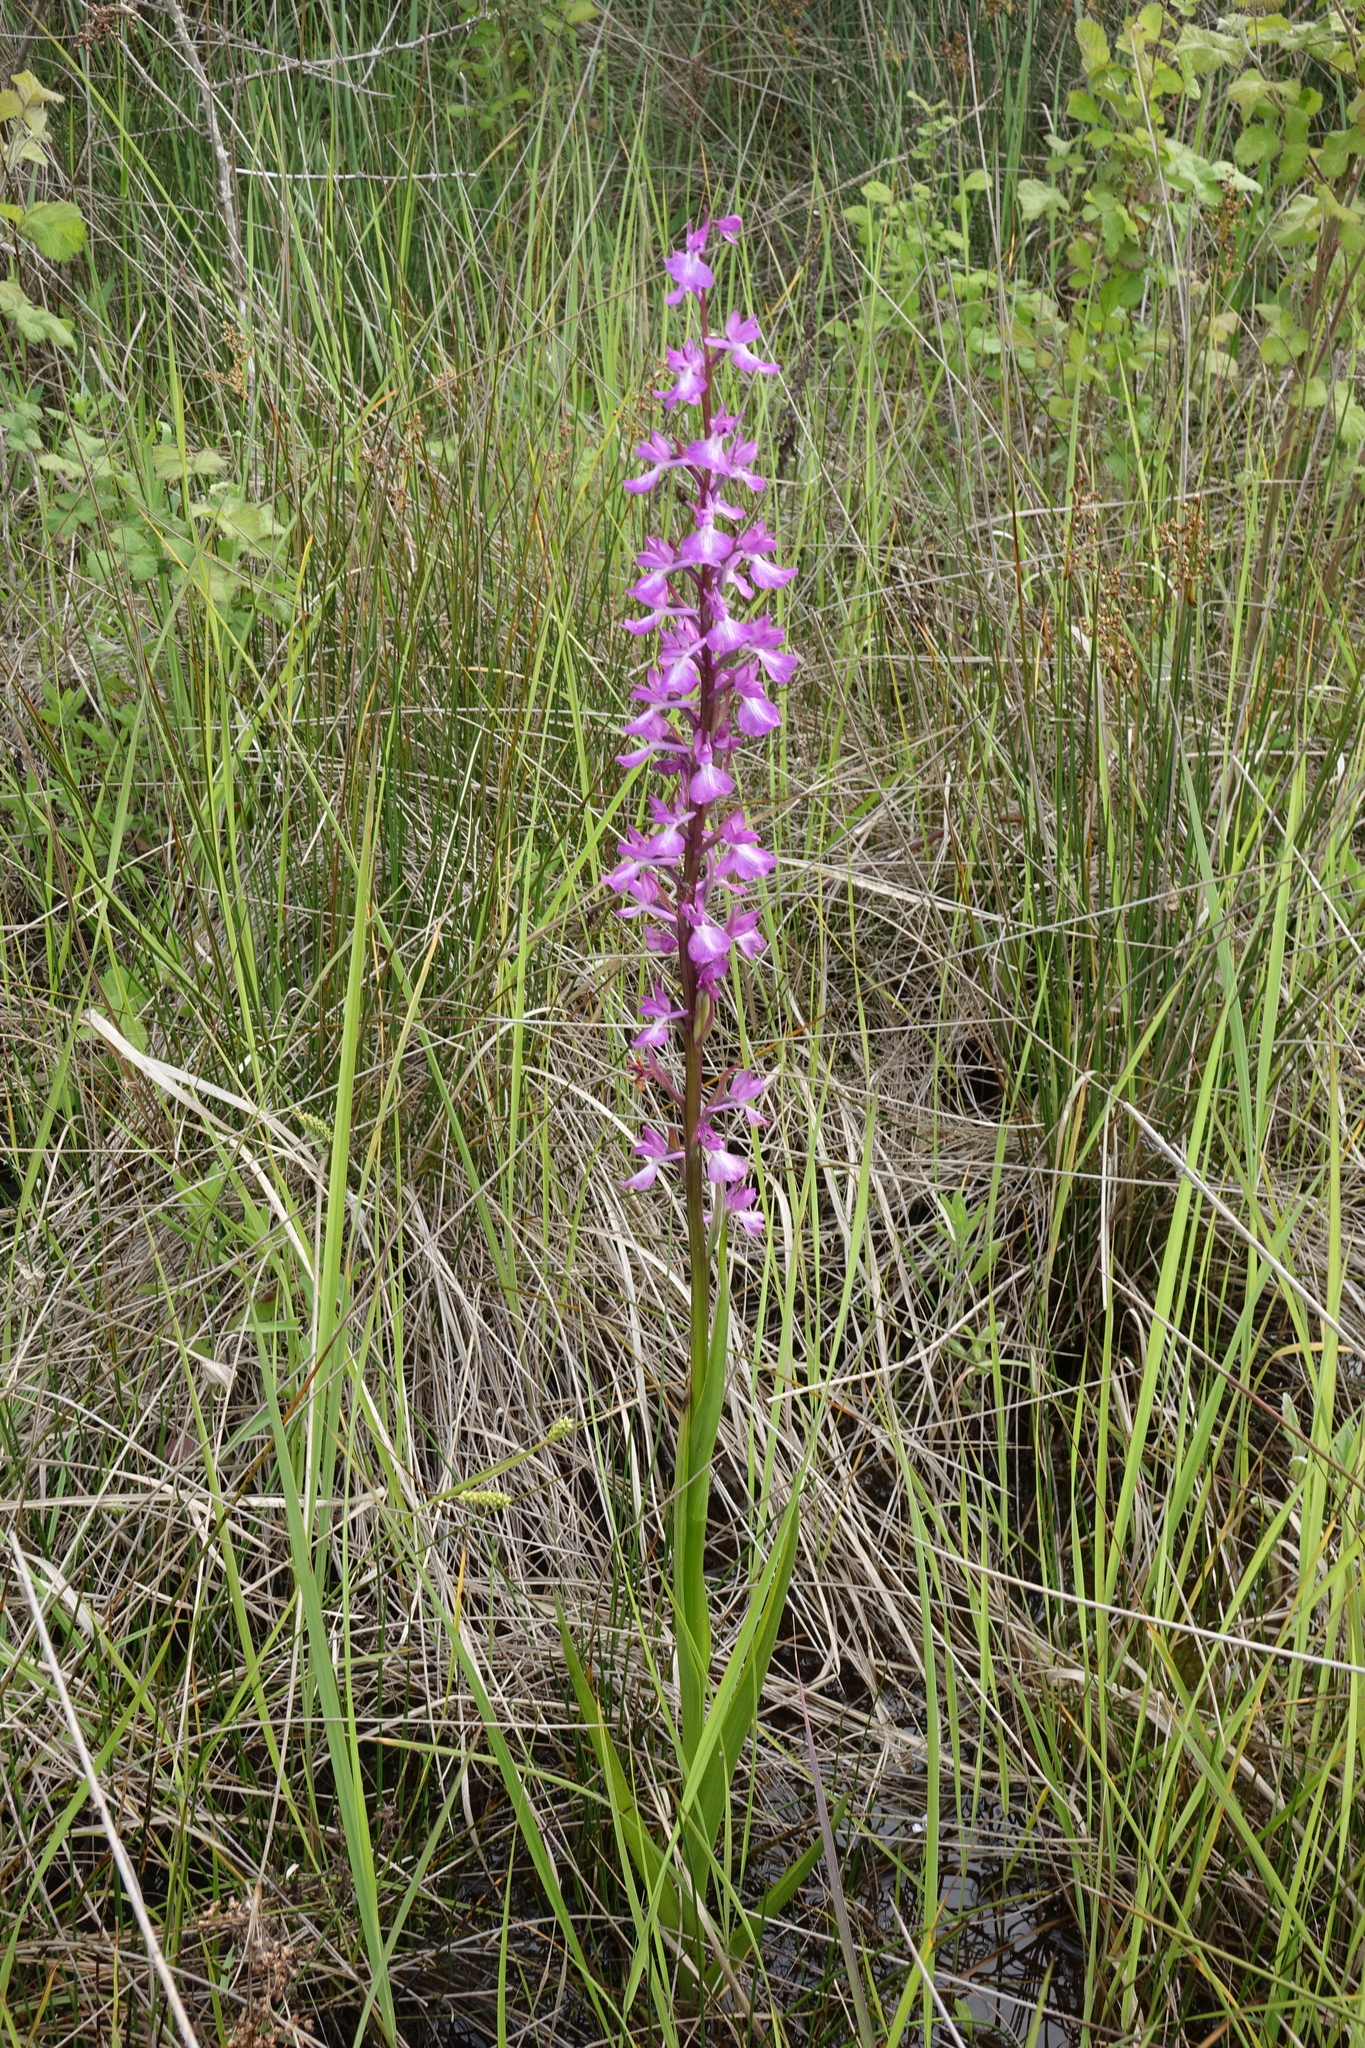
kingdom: Plantae
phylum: Tracheophyta
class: Liliopsida
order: Asparagales
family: Orchidaceae
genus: Anacamptis
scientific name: Anacamptis palustris
